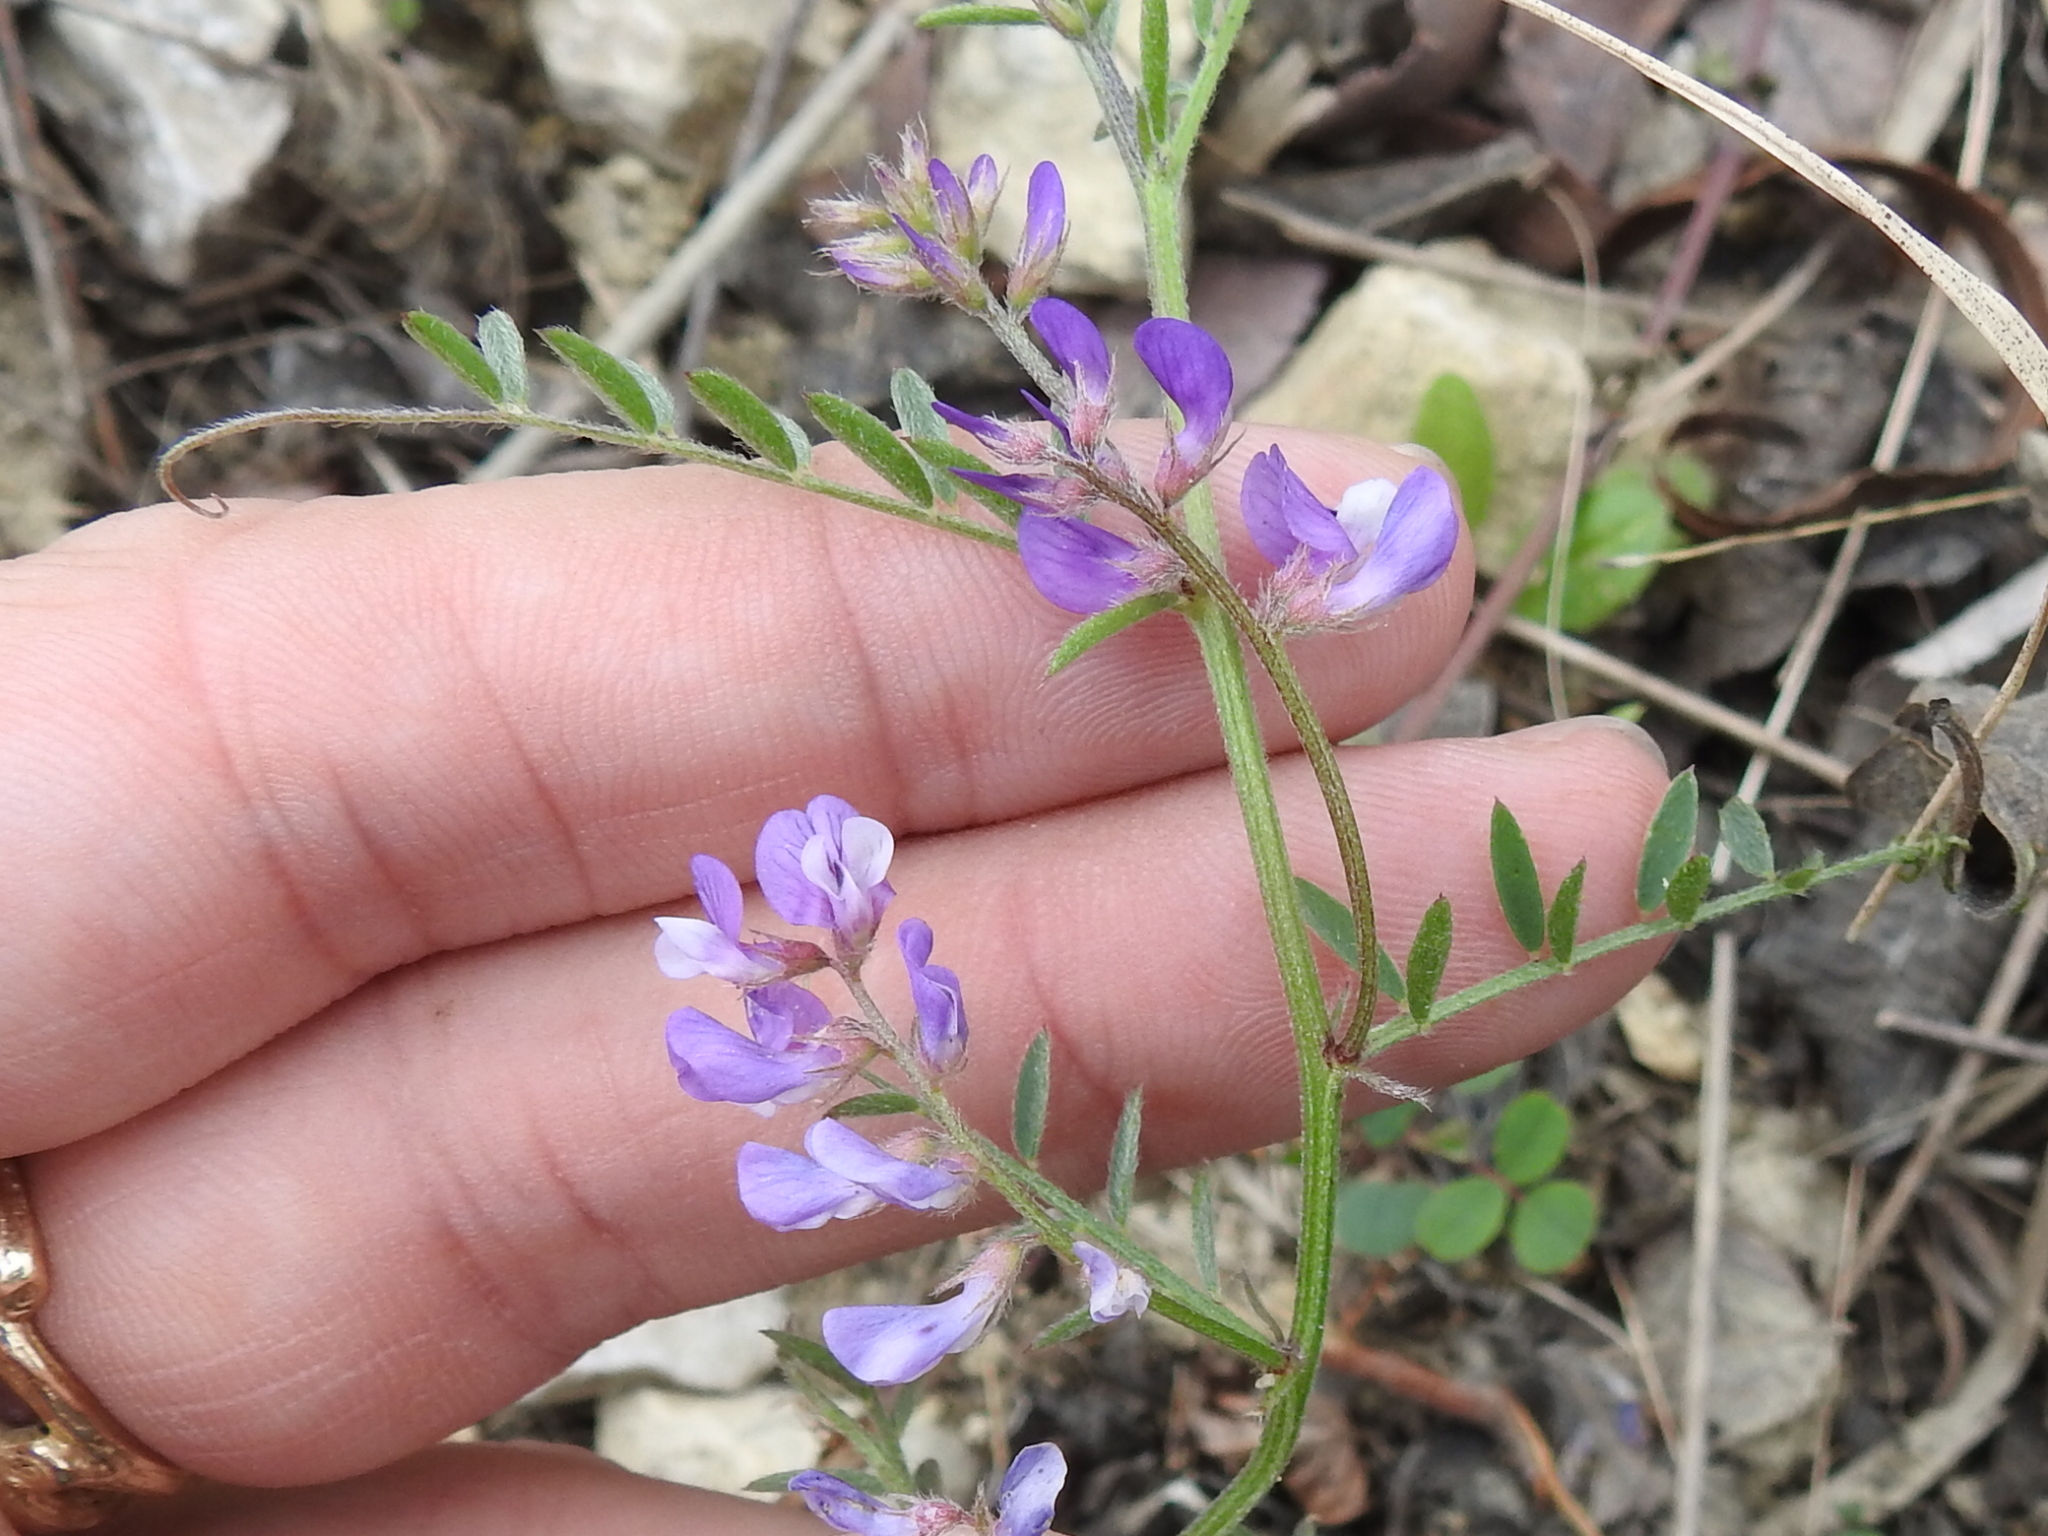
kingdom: Plantae
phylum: Tracheophyta
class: Magnoliopsida
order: Fabales
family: Fabaceae
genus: Vicia
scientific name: Vicia ludoviciana
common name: Louisiana vetch
